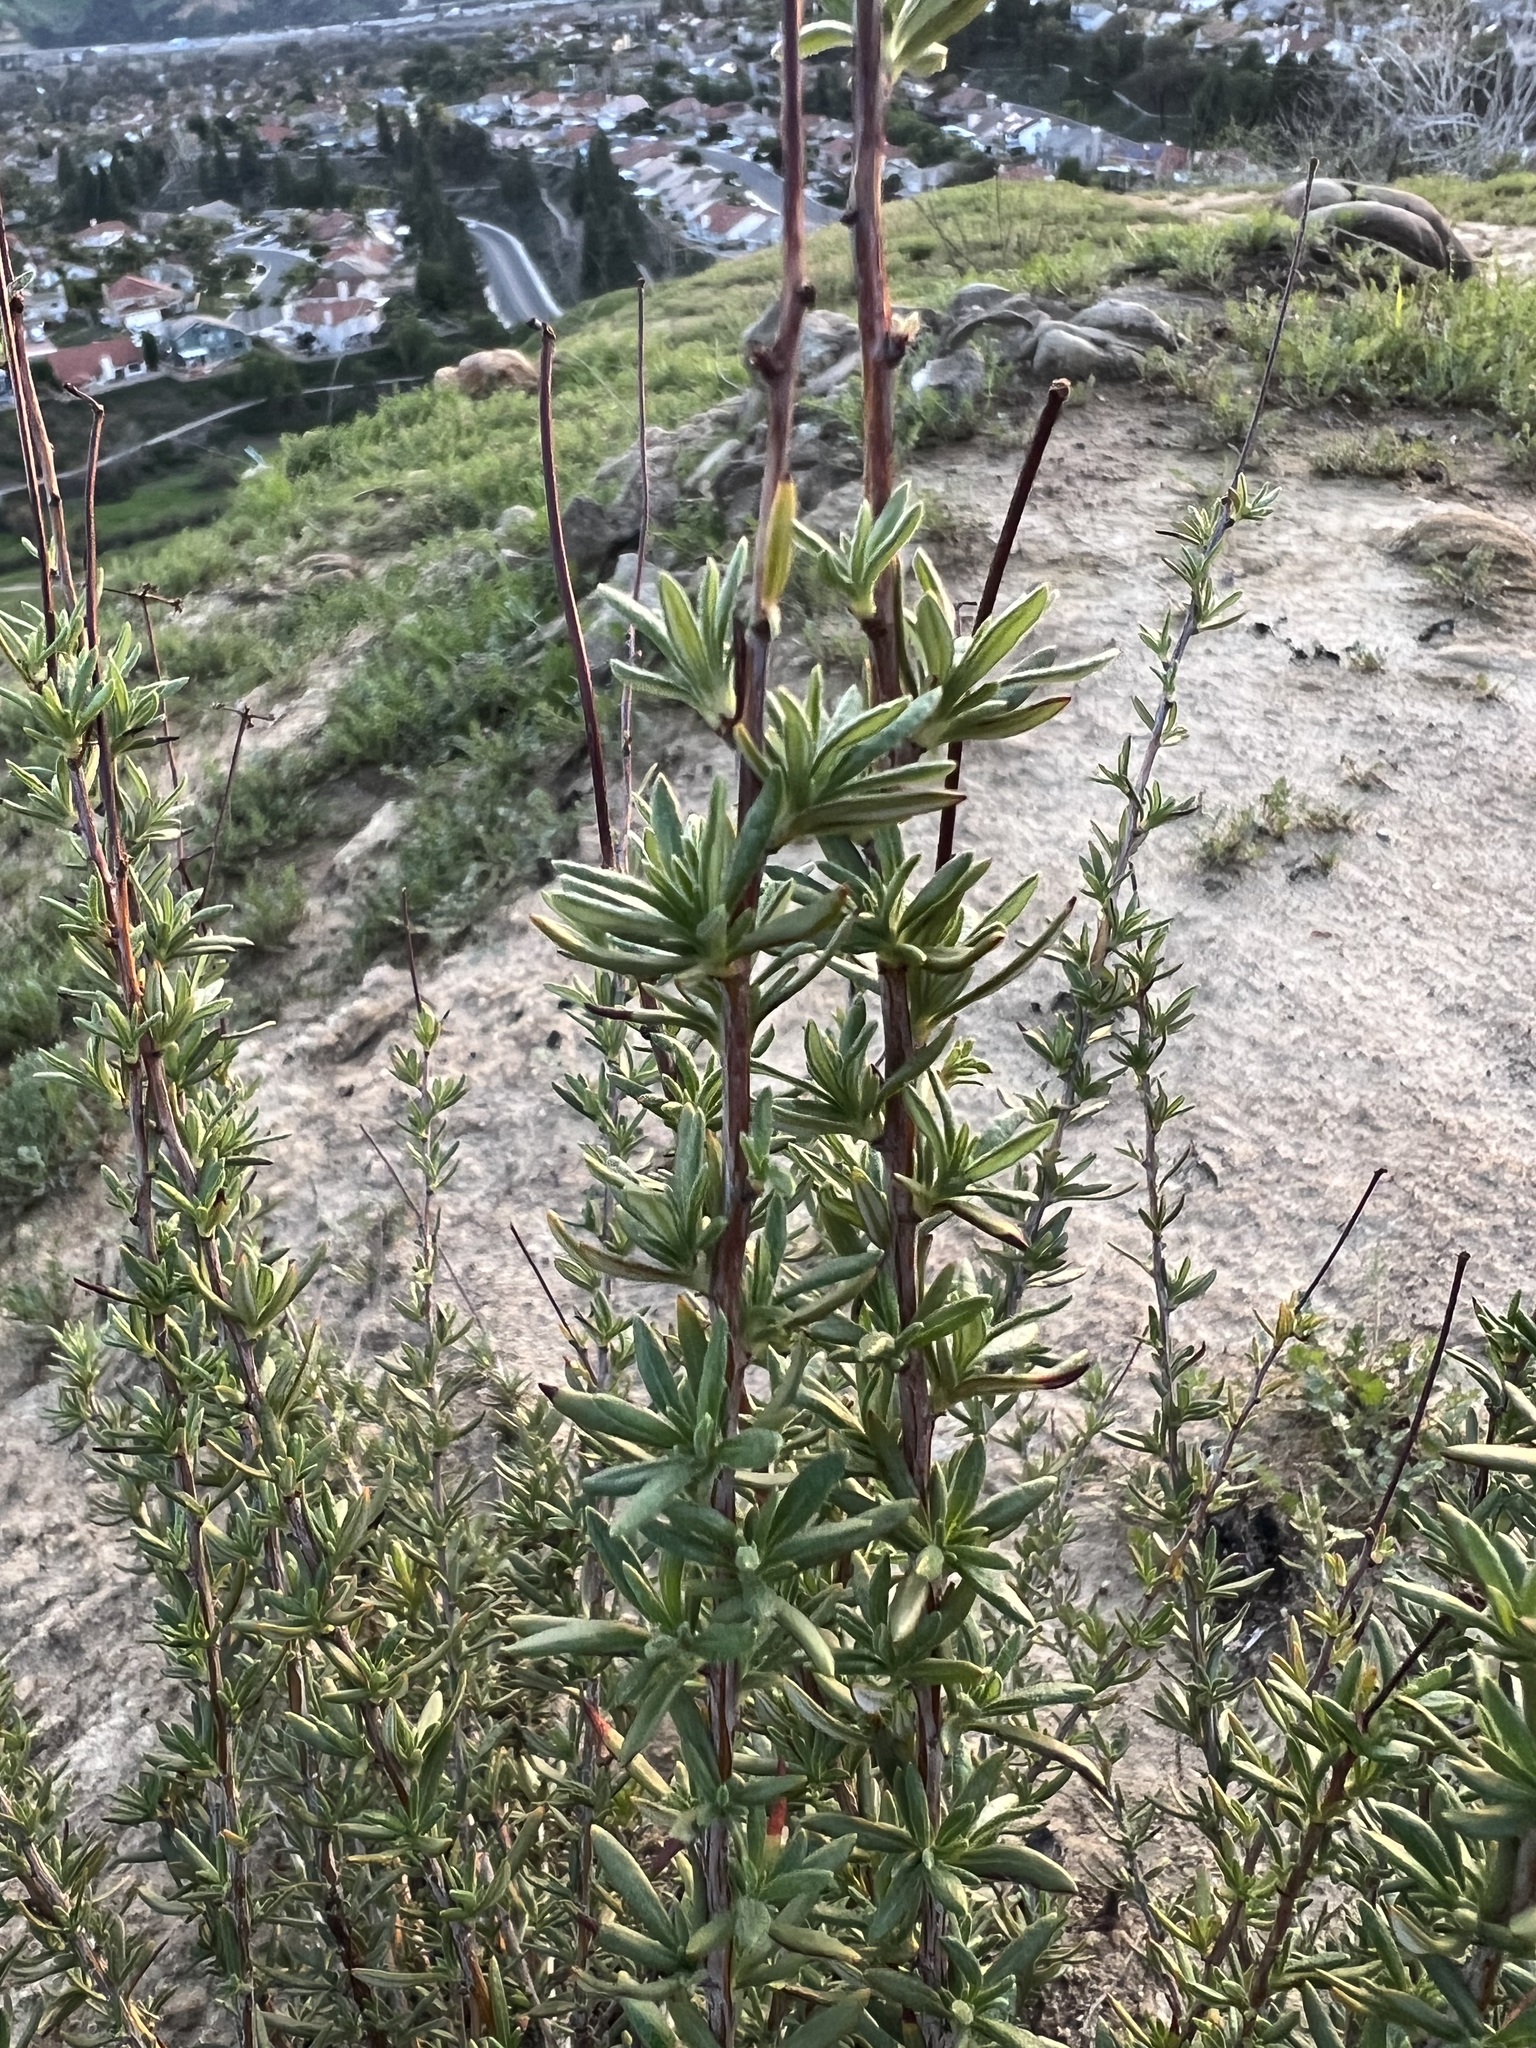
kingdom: Plantae
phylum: Tracheophyta
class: Magnoliopsida
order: Caryophyllales
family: Polygonaceae
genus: Eriogonum
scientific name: Eriogonum fasciculatum
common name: California wild buckwheat
